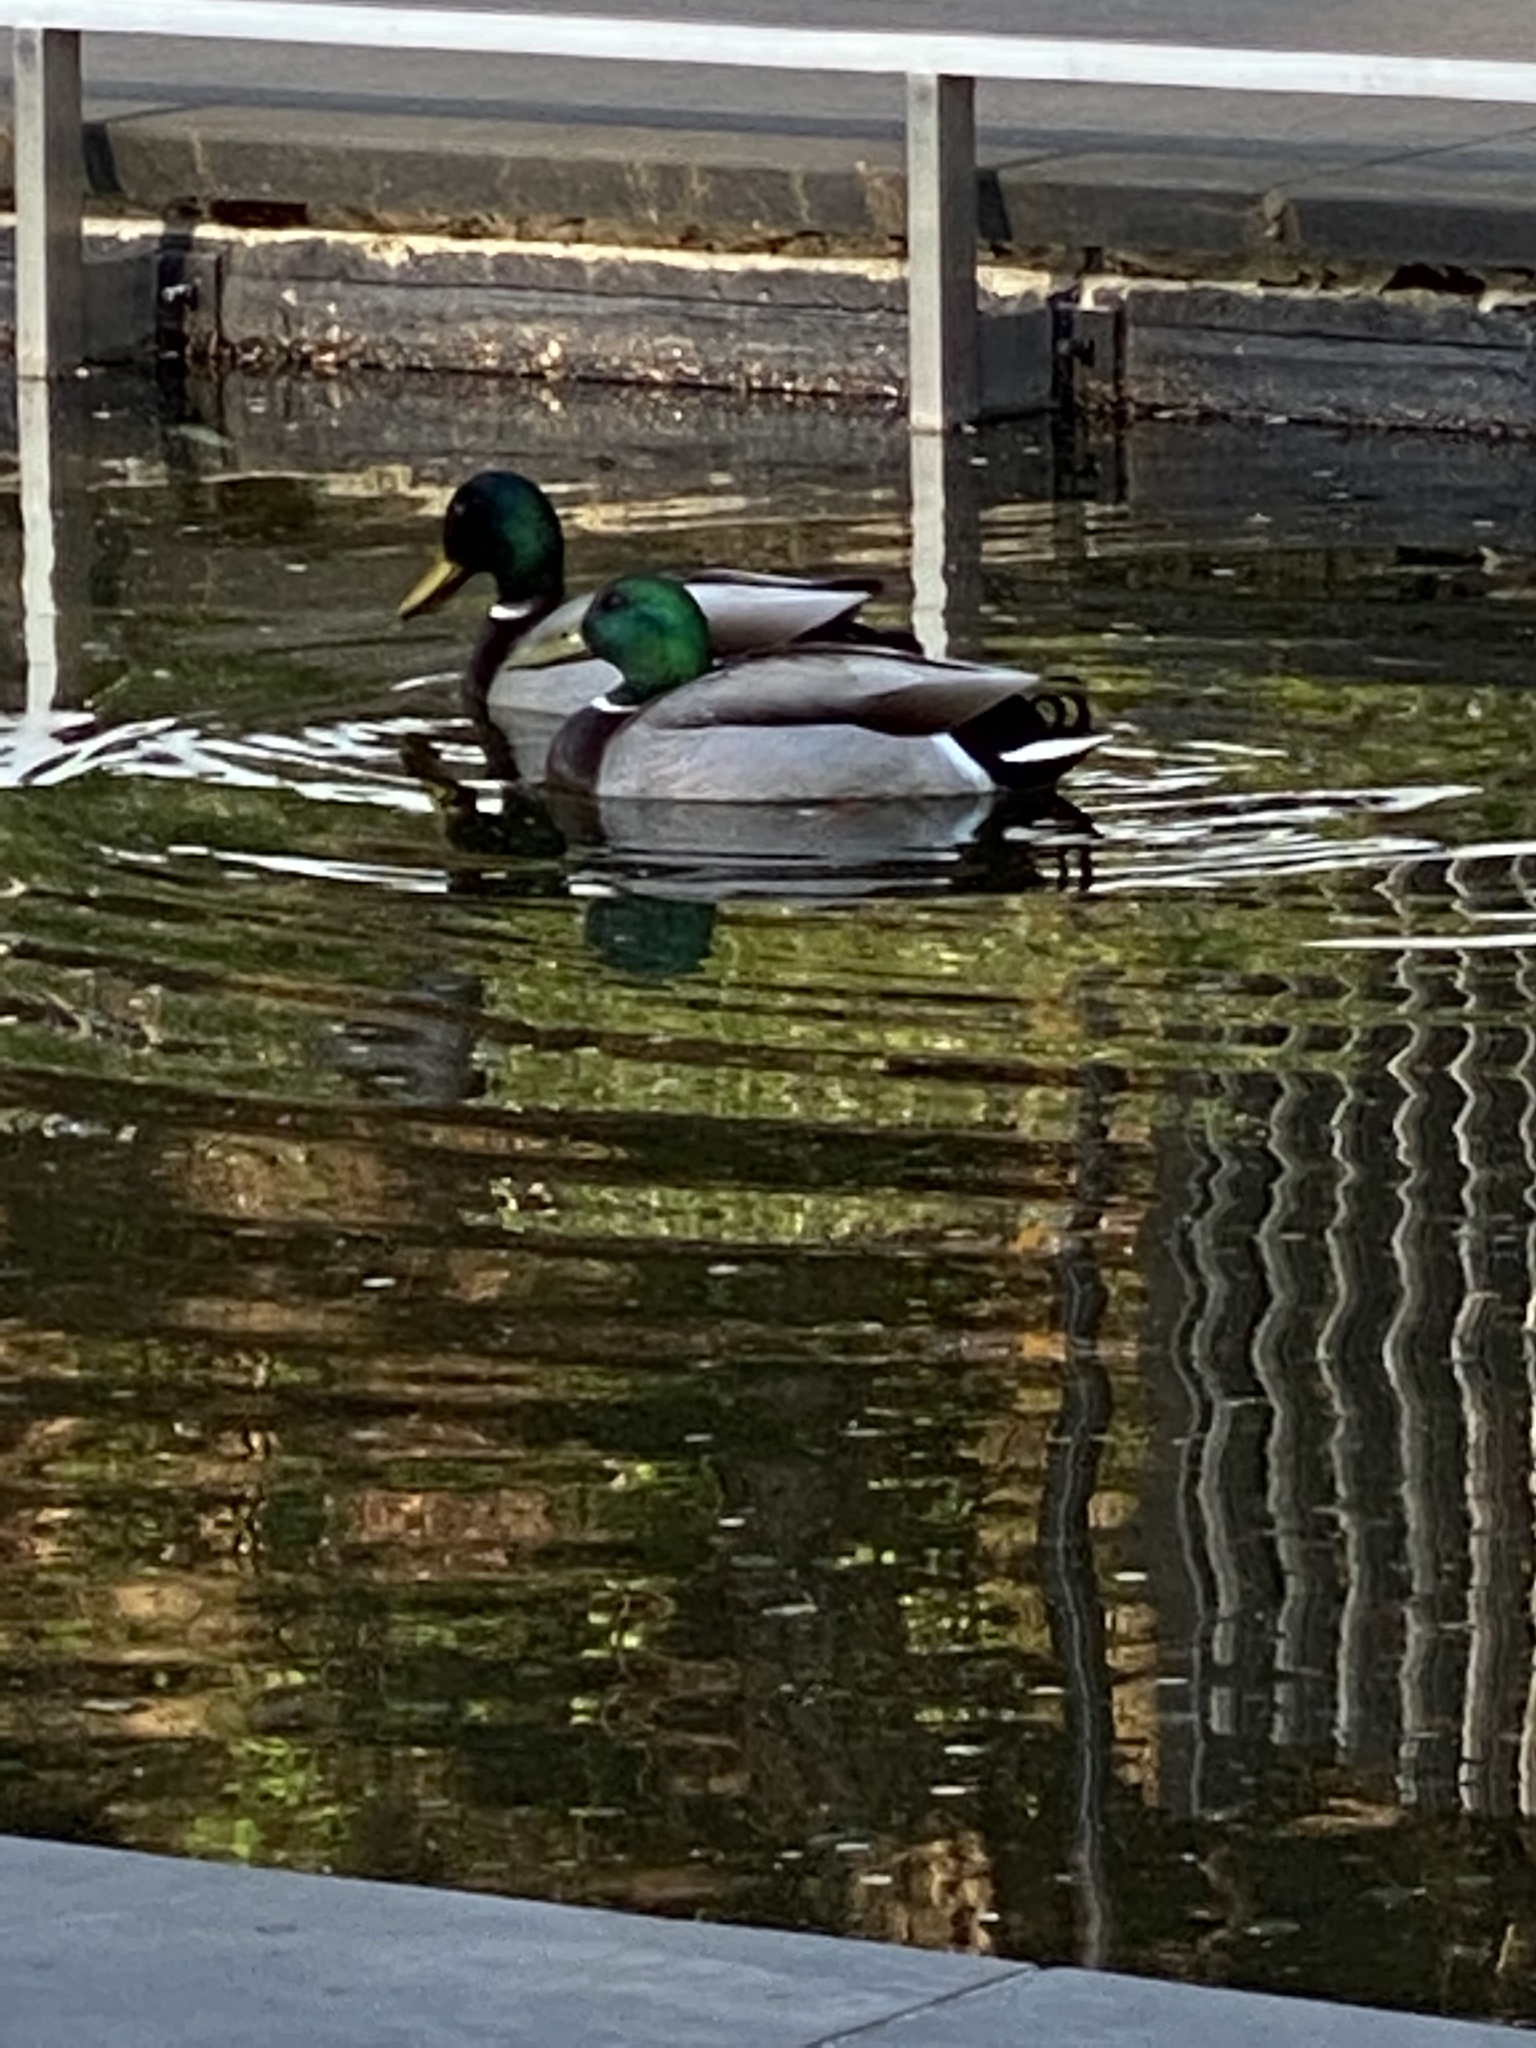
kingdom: Animalia
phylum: Chordata
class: Aves
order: Anseriformes
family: Anatidae
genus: Anas
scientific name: Anas platyrhynchos
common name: Mallard
